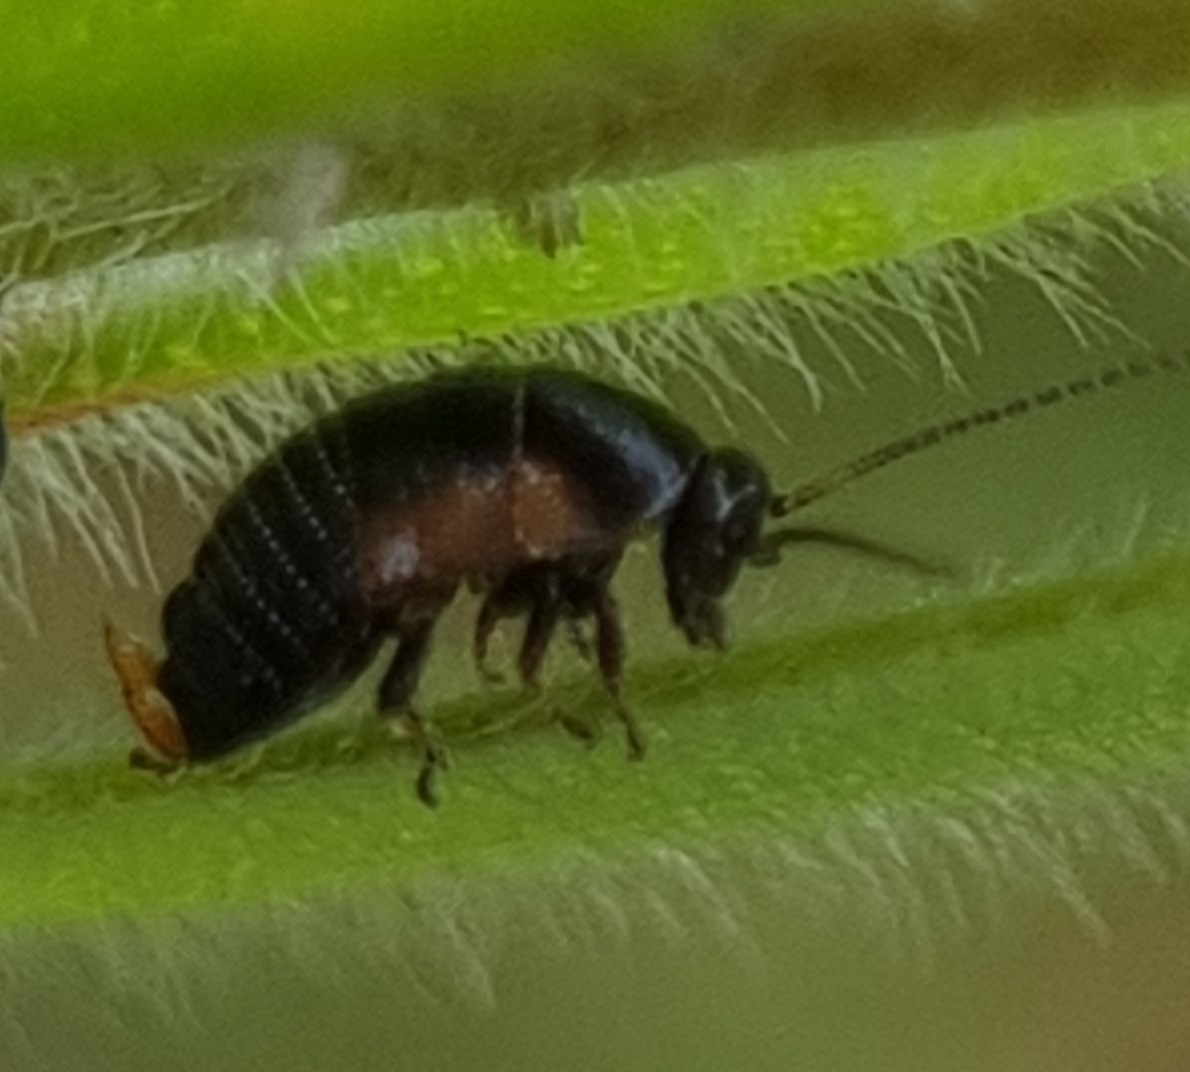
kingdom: Animalia
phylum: Arthropoda
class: Insecta
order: Blattodea
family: Ectobiidae
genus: Ellipsidion
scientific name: Ellipsidion
